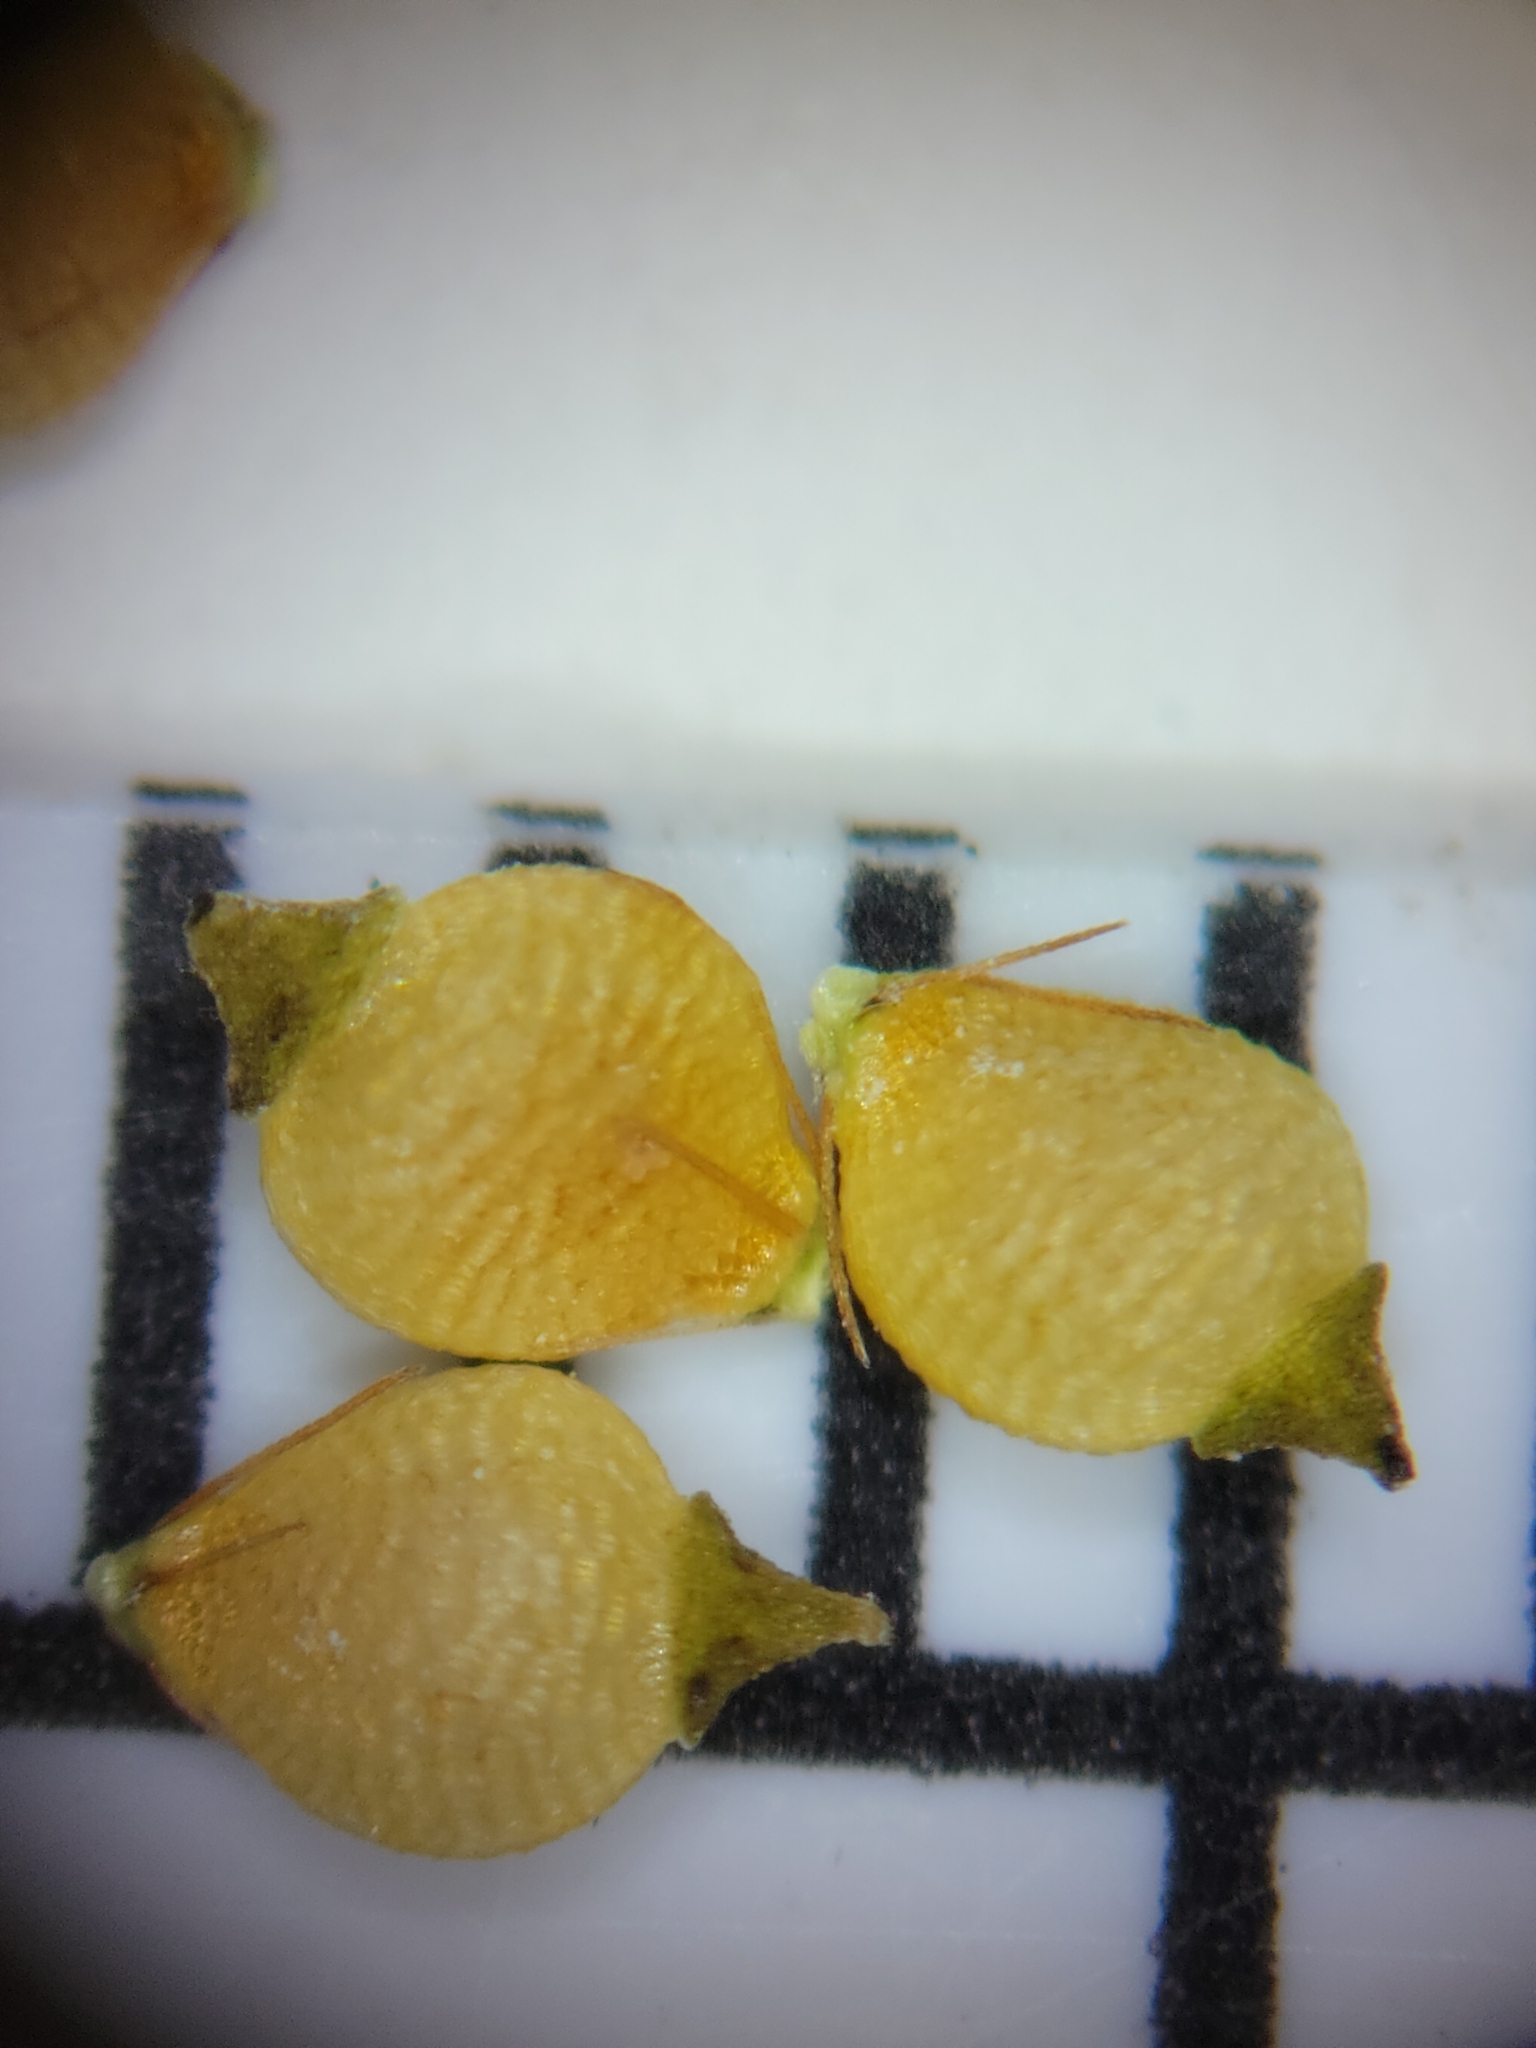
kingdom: Plantae
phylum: Tracheophyta
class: Liliopsida
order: Poales
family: Cyperaceae
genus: Rhynchospora
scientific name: Rhynchospora recognita
